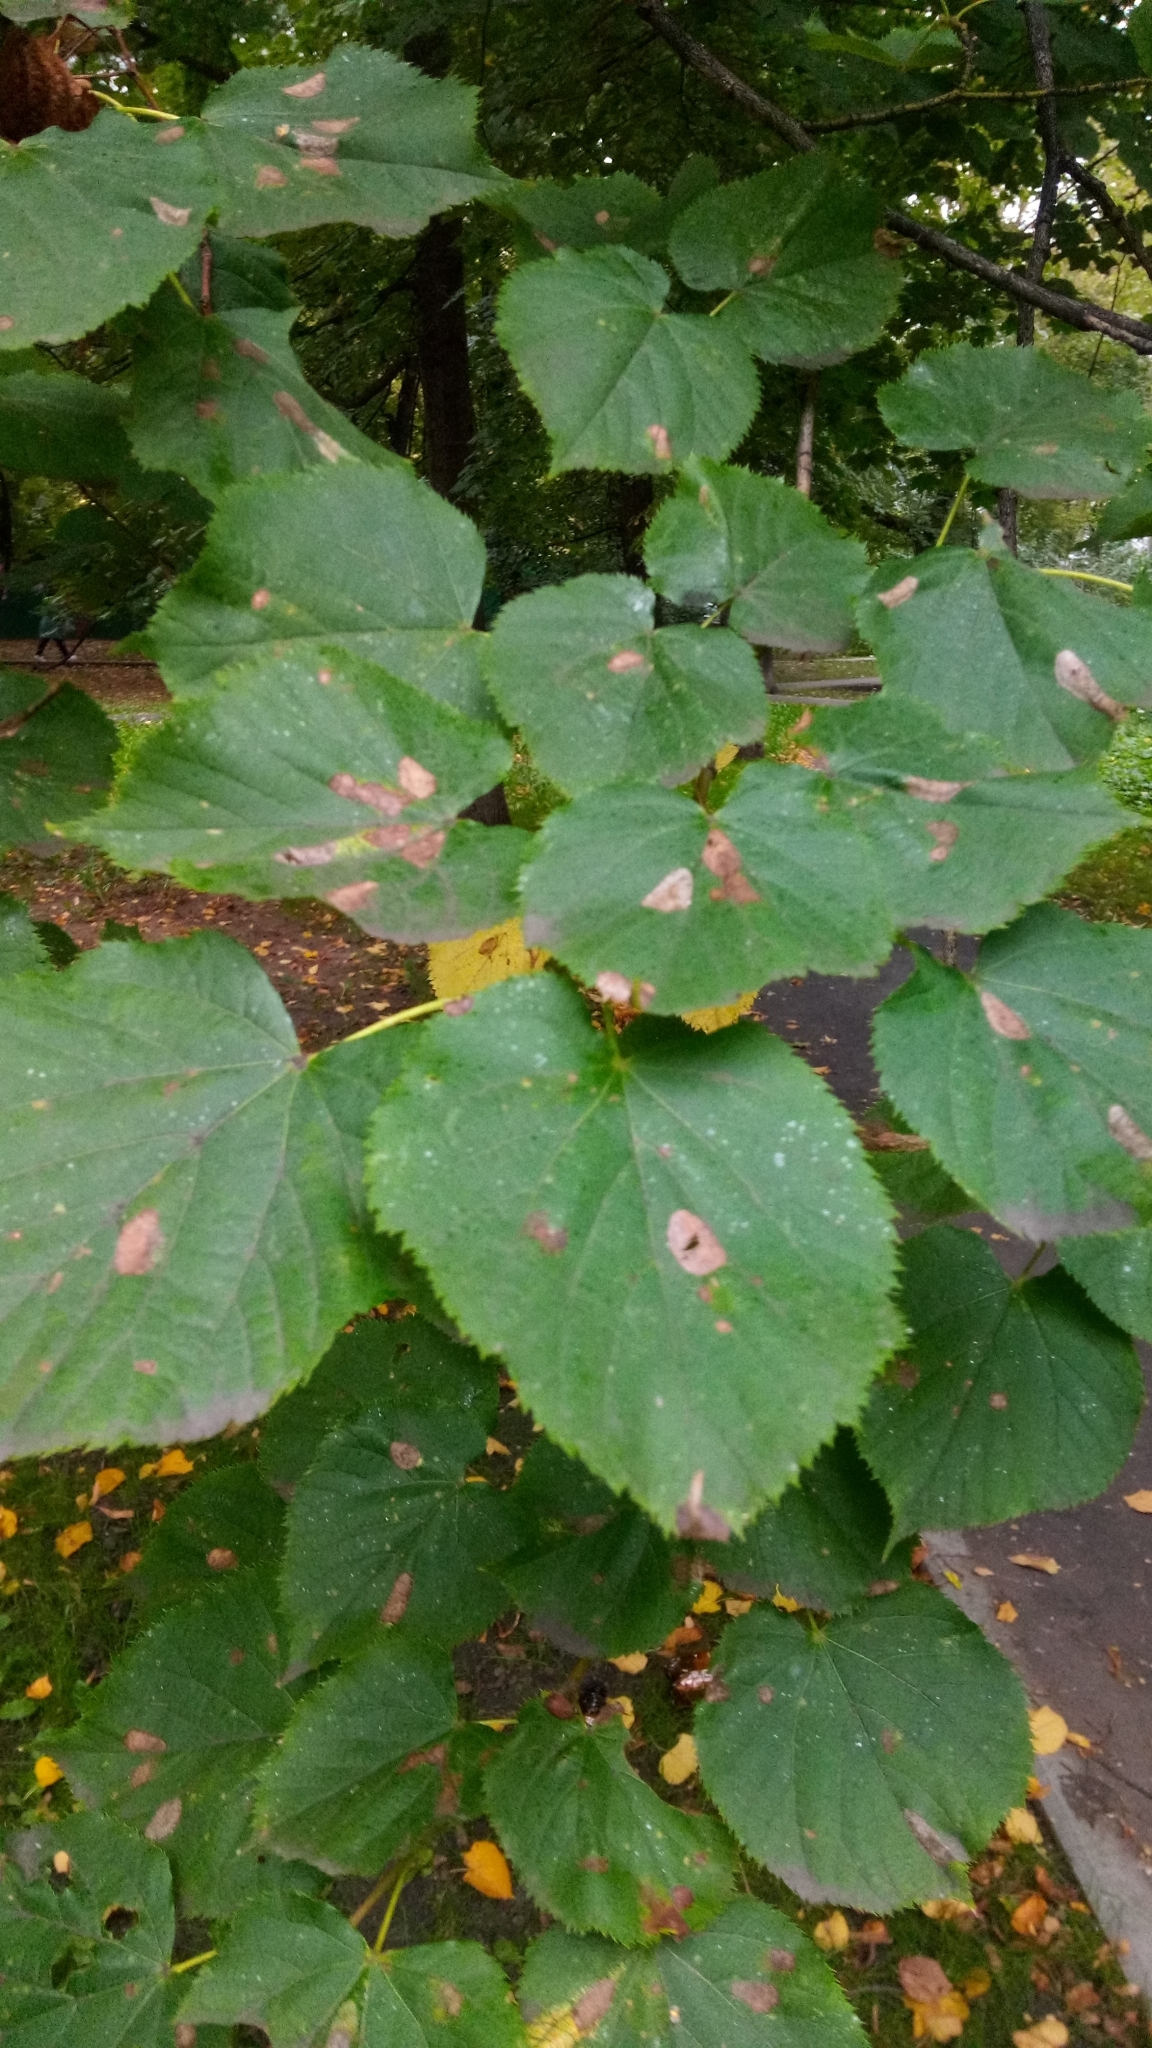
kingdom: Animalia
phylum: Arthropoda
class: Insecta
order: Lepidoptera
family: Gracillariidae
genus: Phyllonorycter
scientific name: Phyllonorycter issikii
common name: Linden midget
